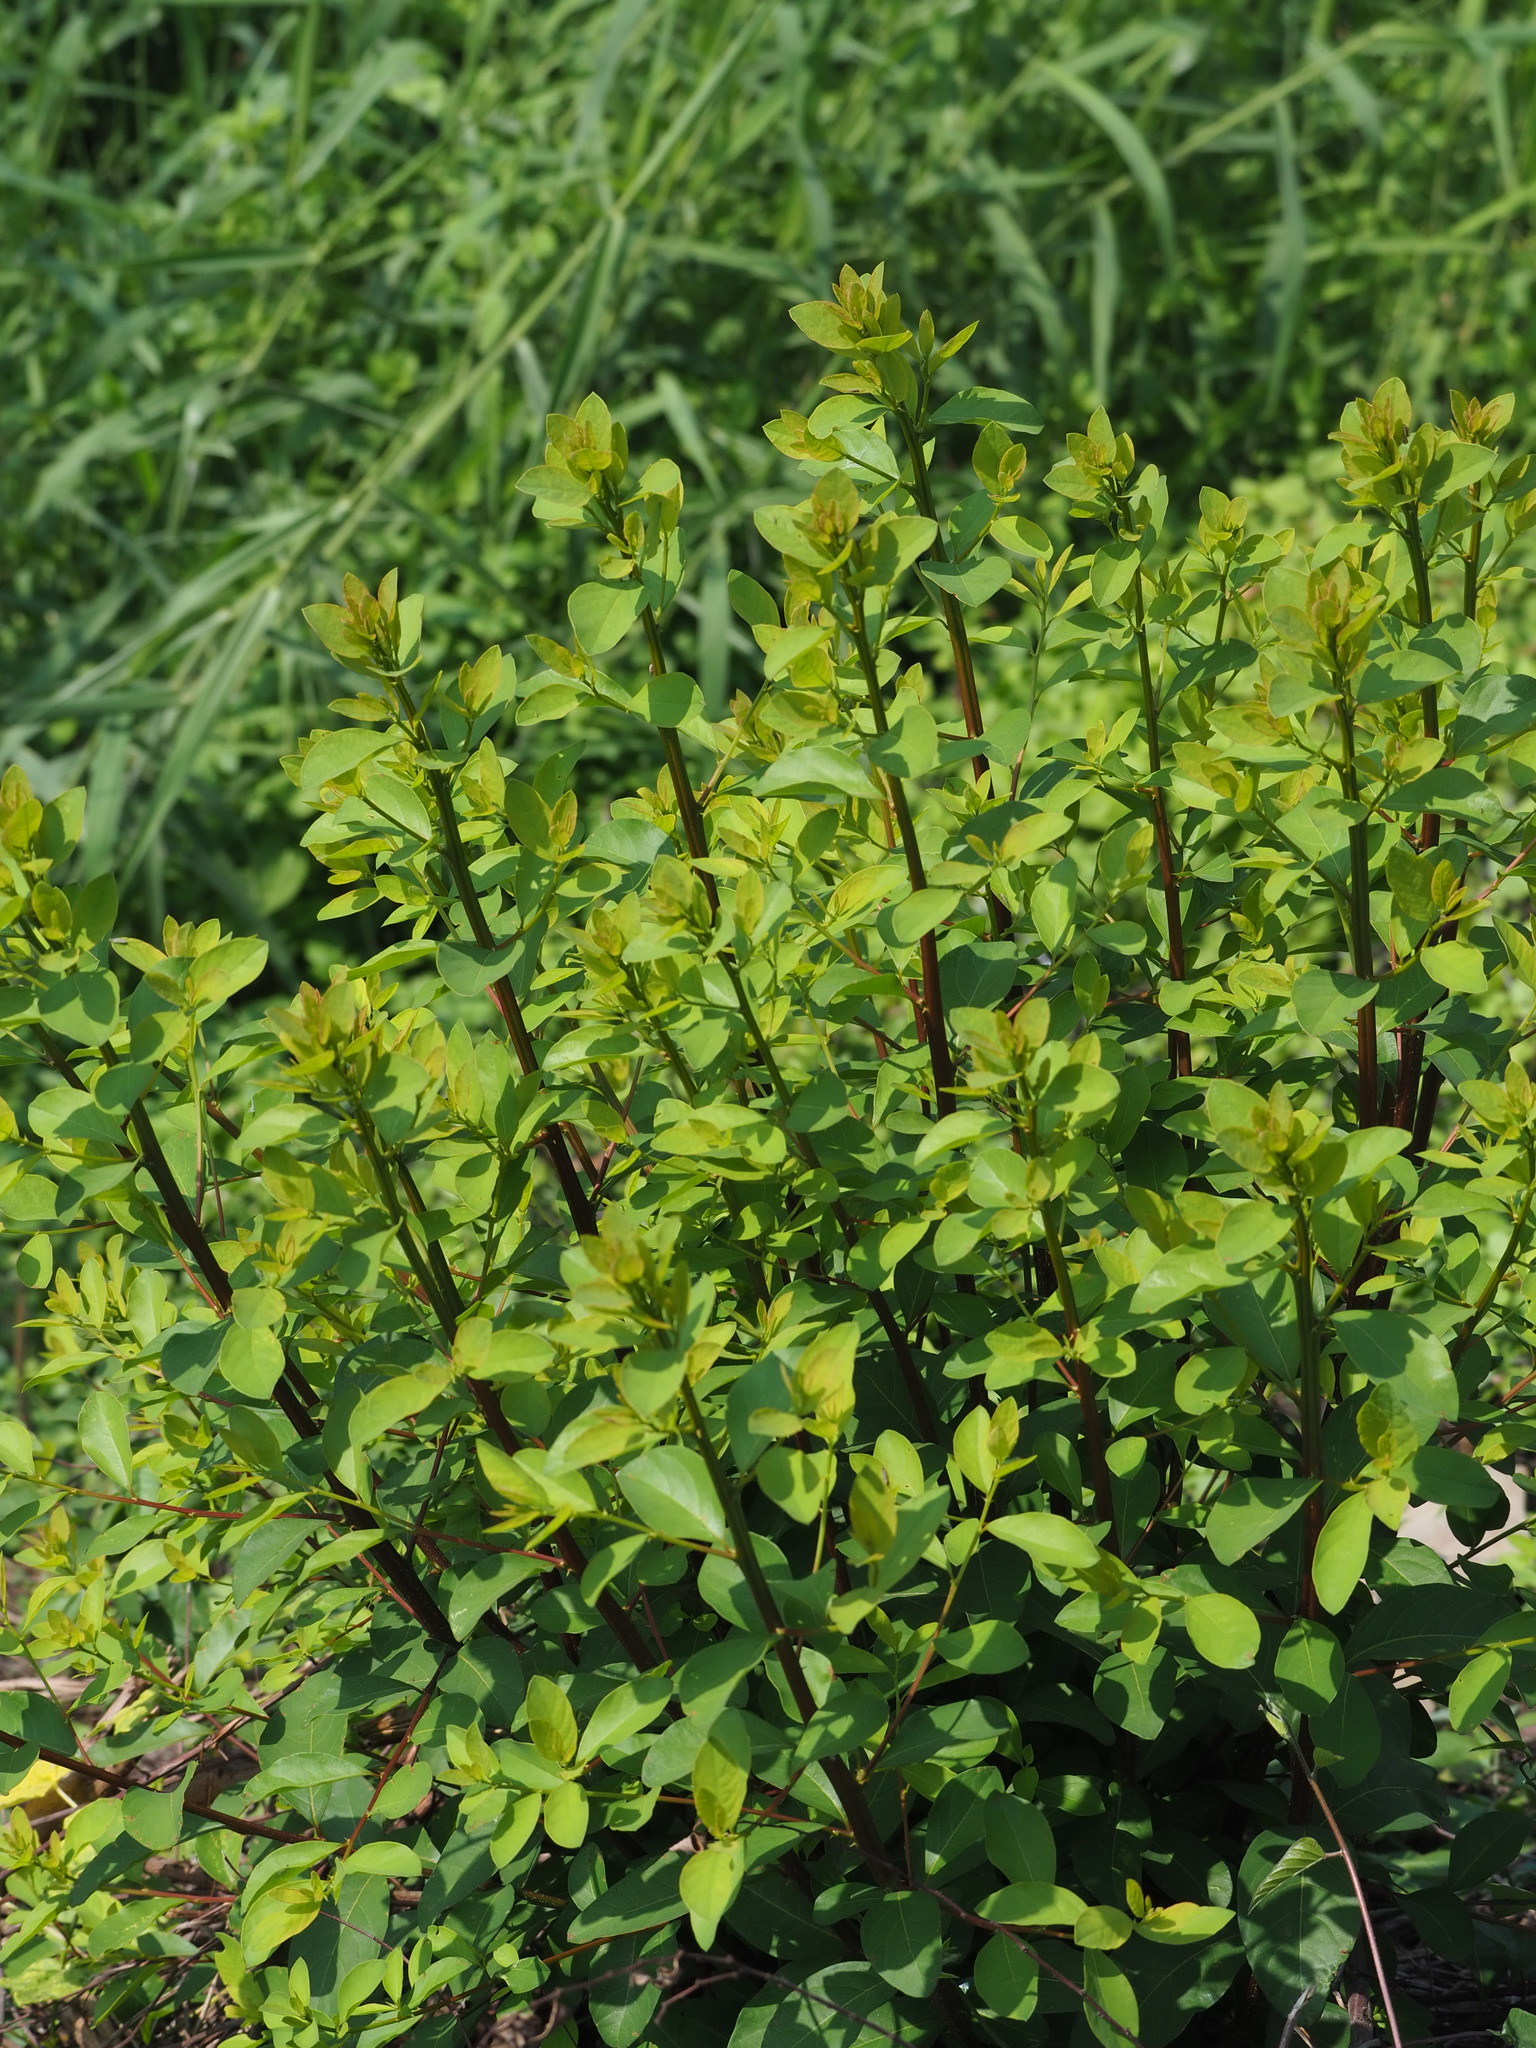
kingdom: Plantae
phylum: Tracheophyta
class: Magnoliopsida
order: Malpighiales
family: Phyllanthaceae
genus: Flueggea
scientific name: Flueggea virosa
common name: Common bushweed
